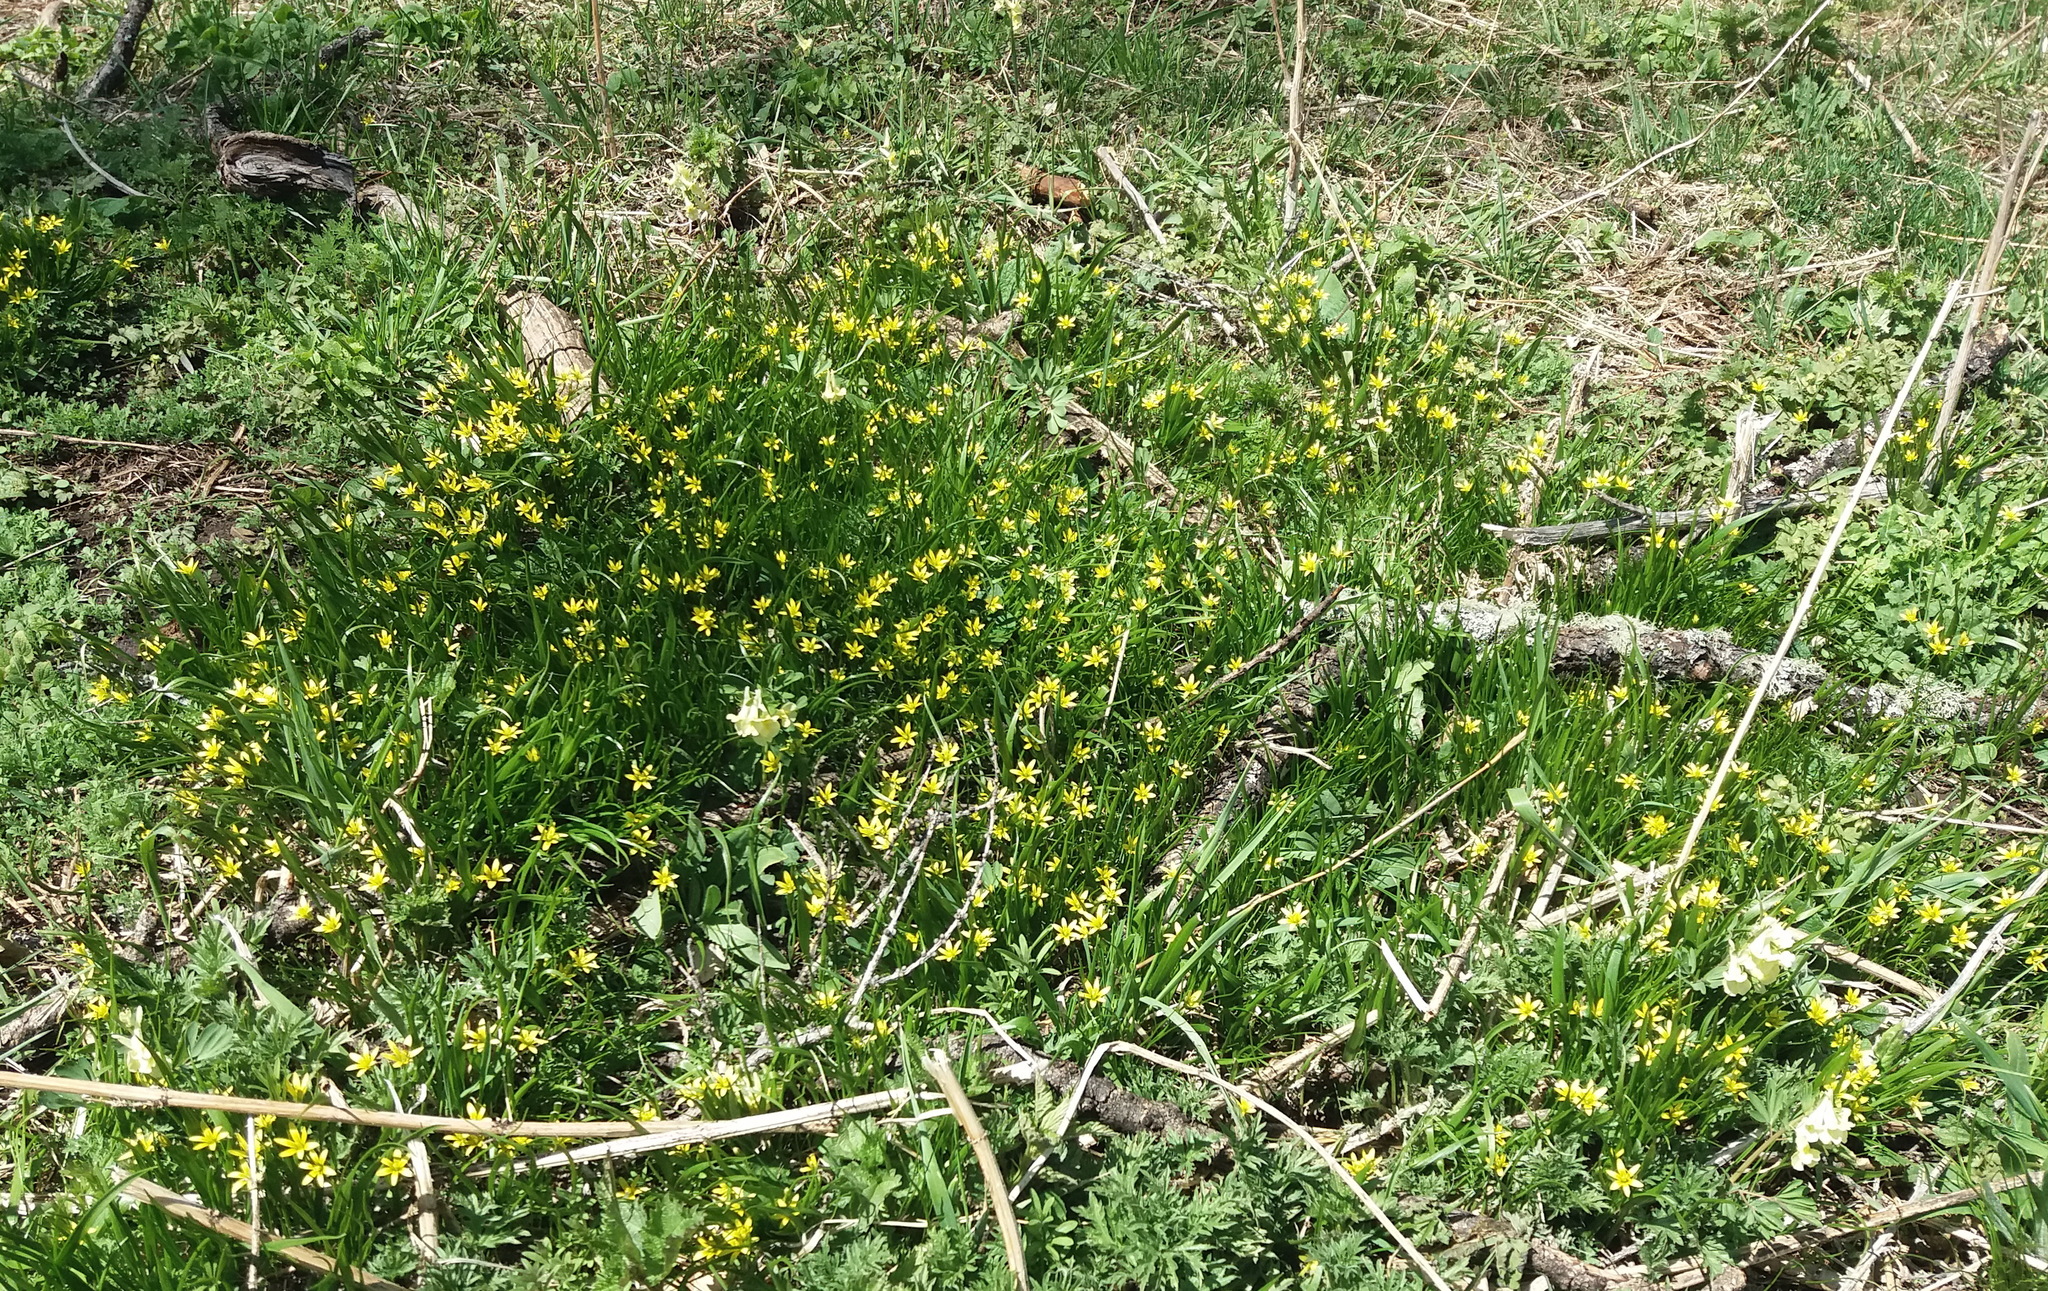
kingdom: Plantae
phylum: Tracheophyta
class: Liliopsida
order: Liliales
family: Liliaceae
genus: Gagea
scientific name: Gagea granulosa
